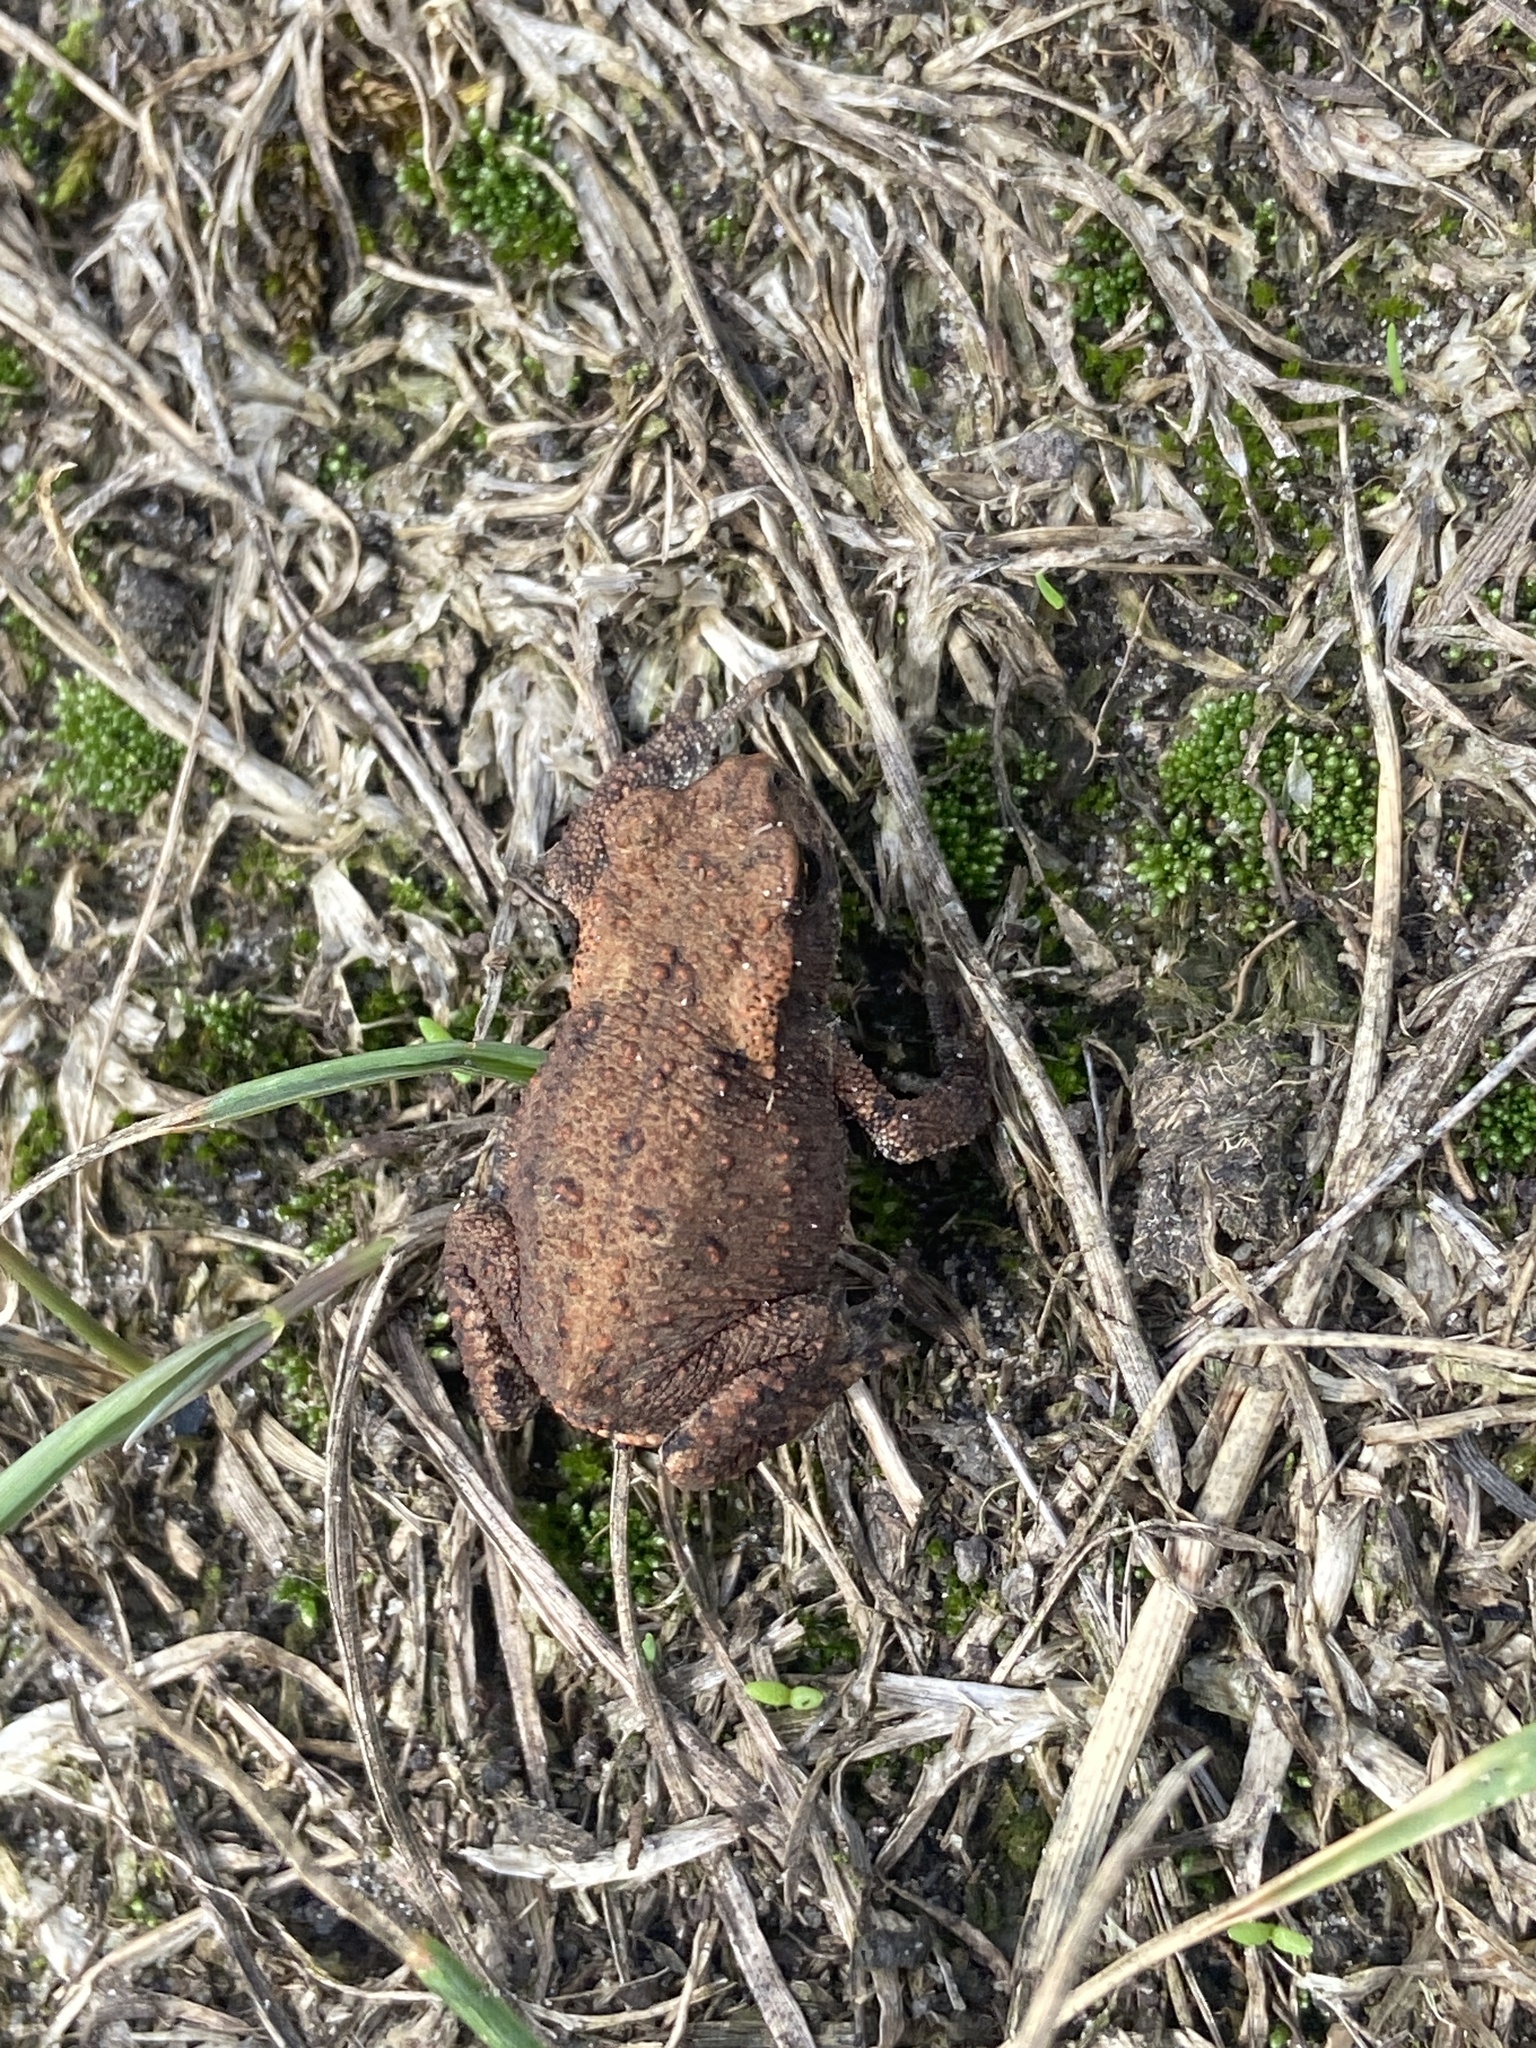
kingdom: Animalia
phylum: Chordata
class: Amphibia
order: Anura
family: Bufonidae
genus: Bufo
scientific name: Bufo bufo
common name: Common toad
